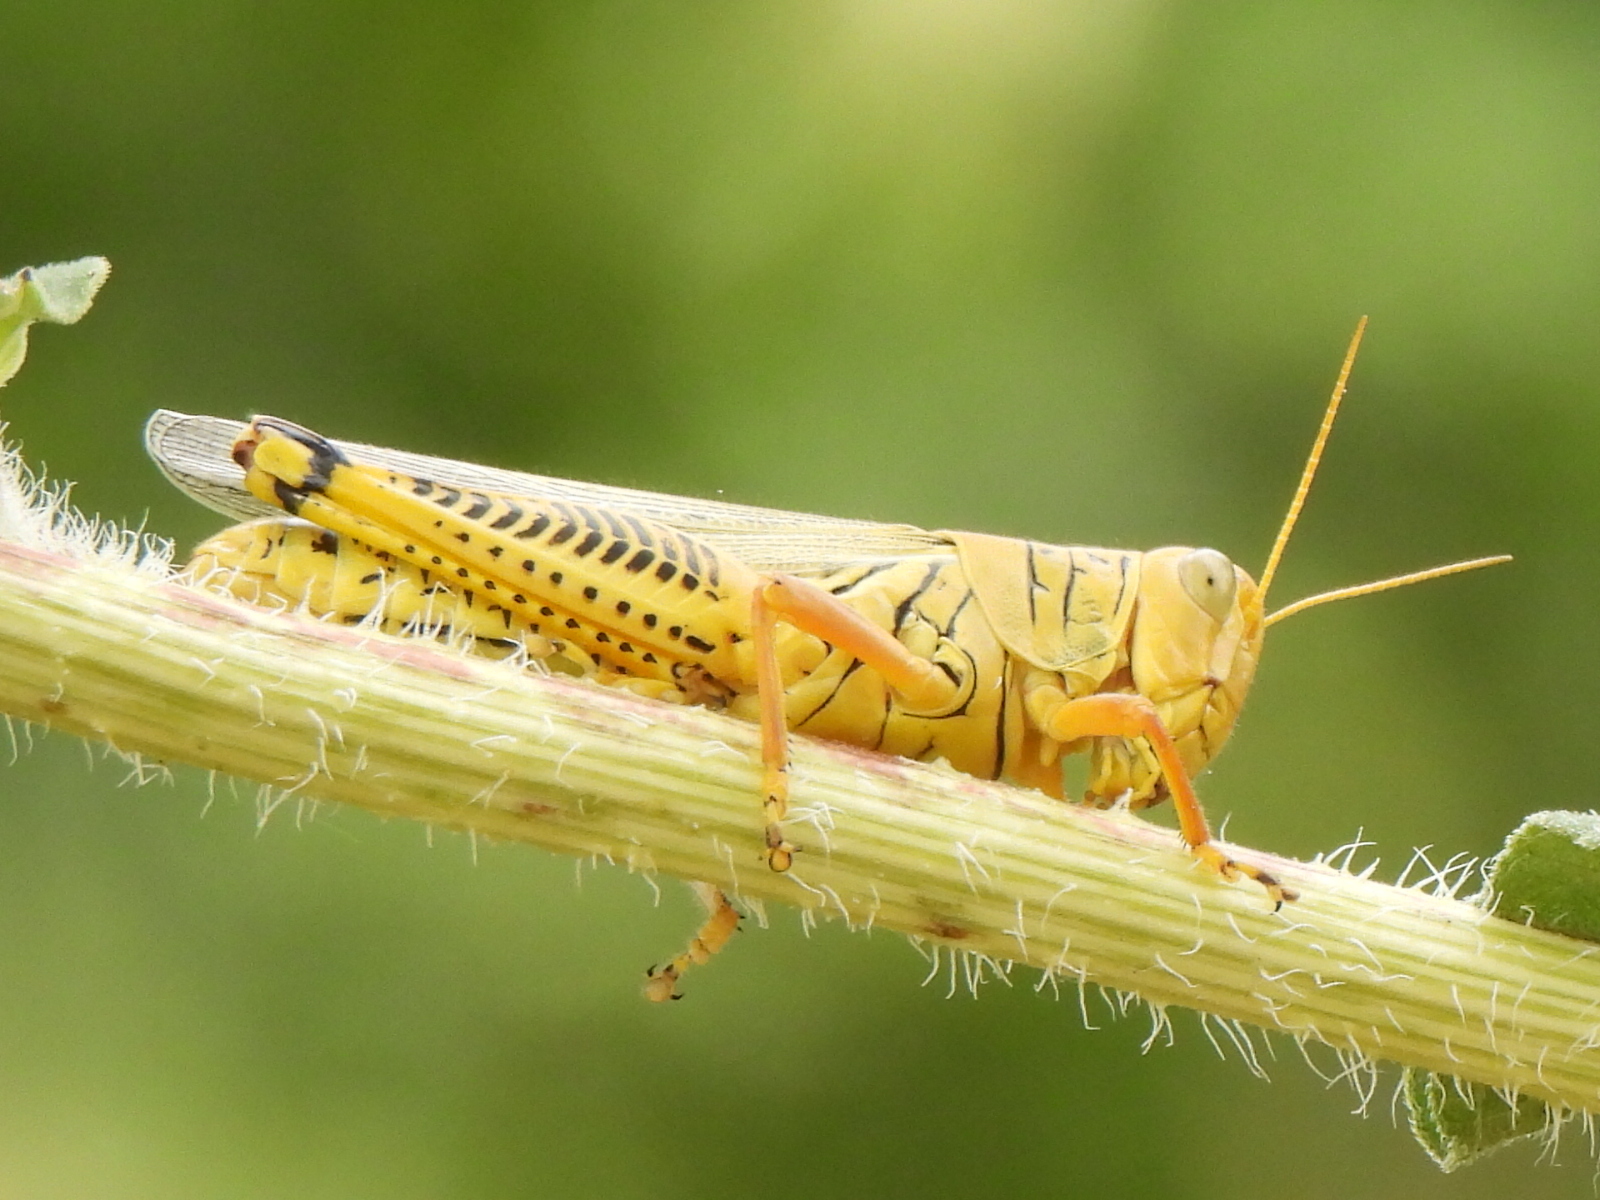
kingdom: Animalia
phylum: Arthropoda
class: Insecta
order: Orthoptera
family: Acrididae
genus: Melanoplus
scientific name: Melanoplus differentialis
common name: Differential grasshopper
